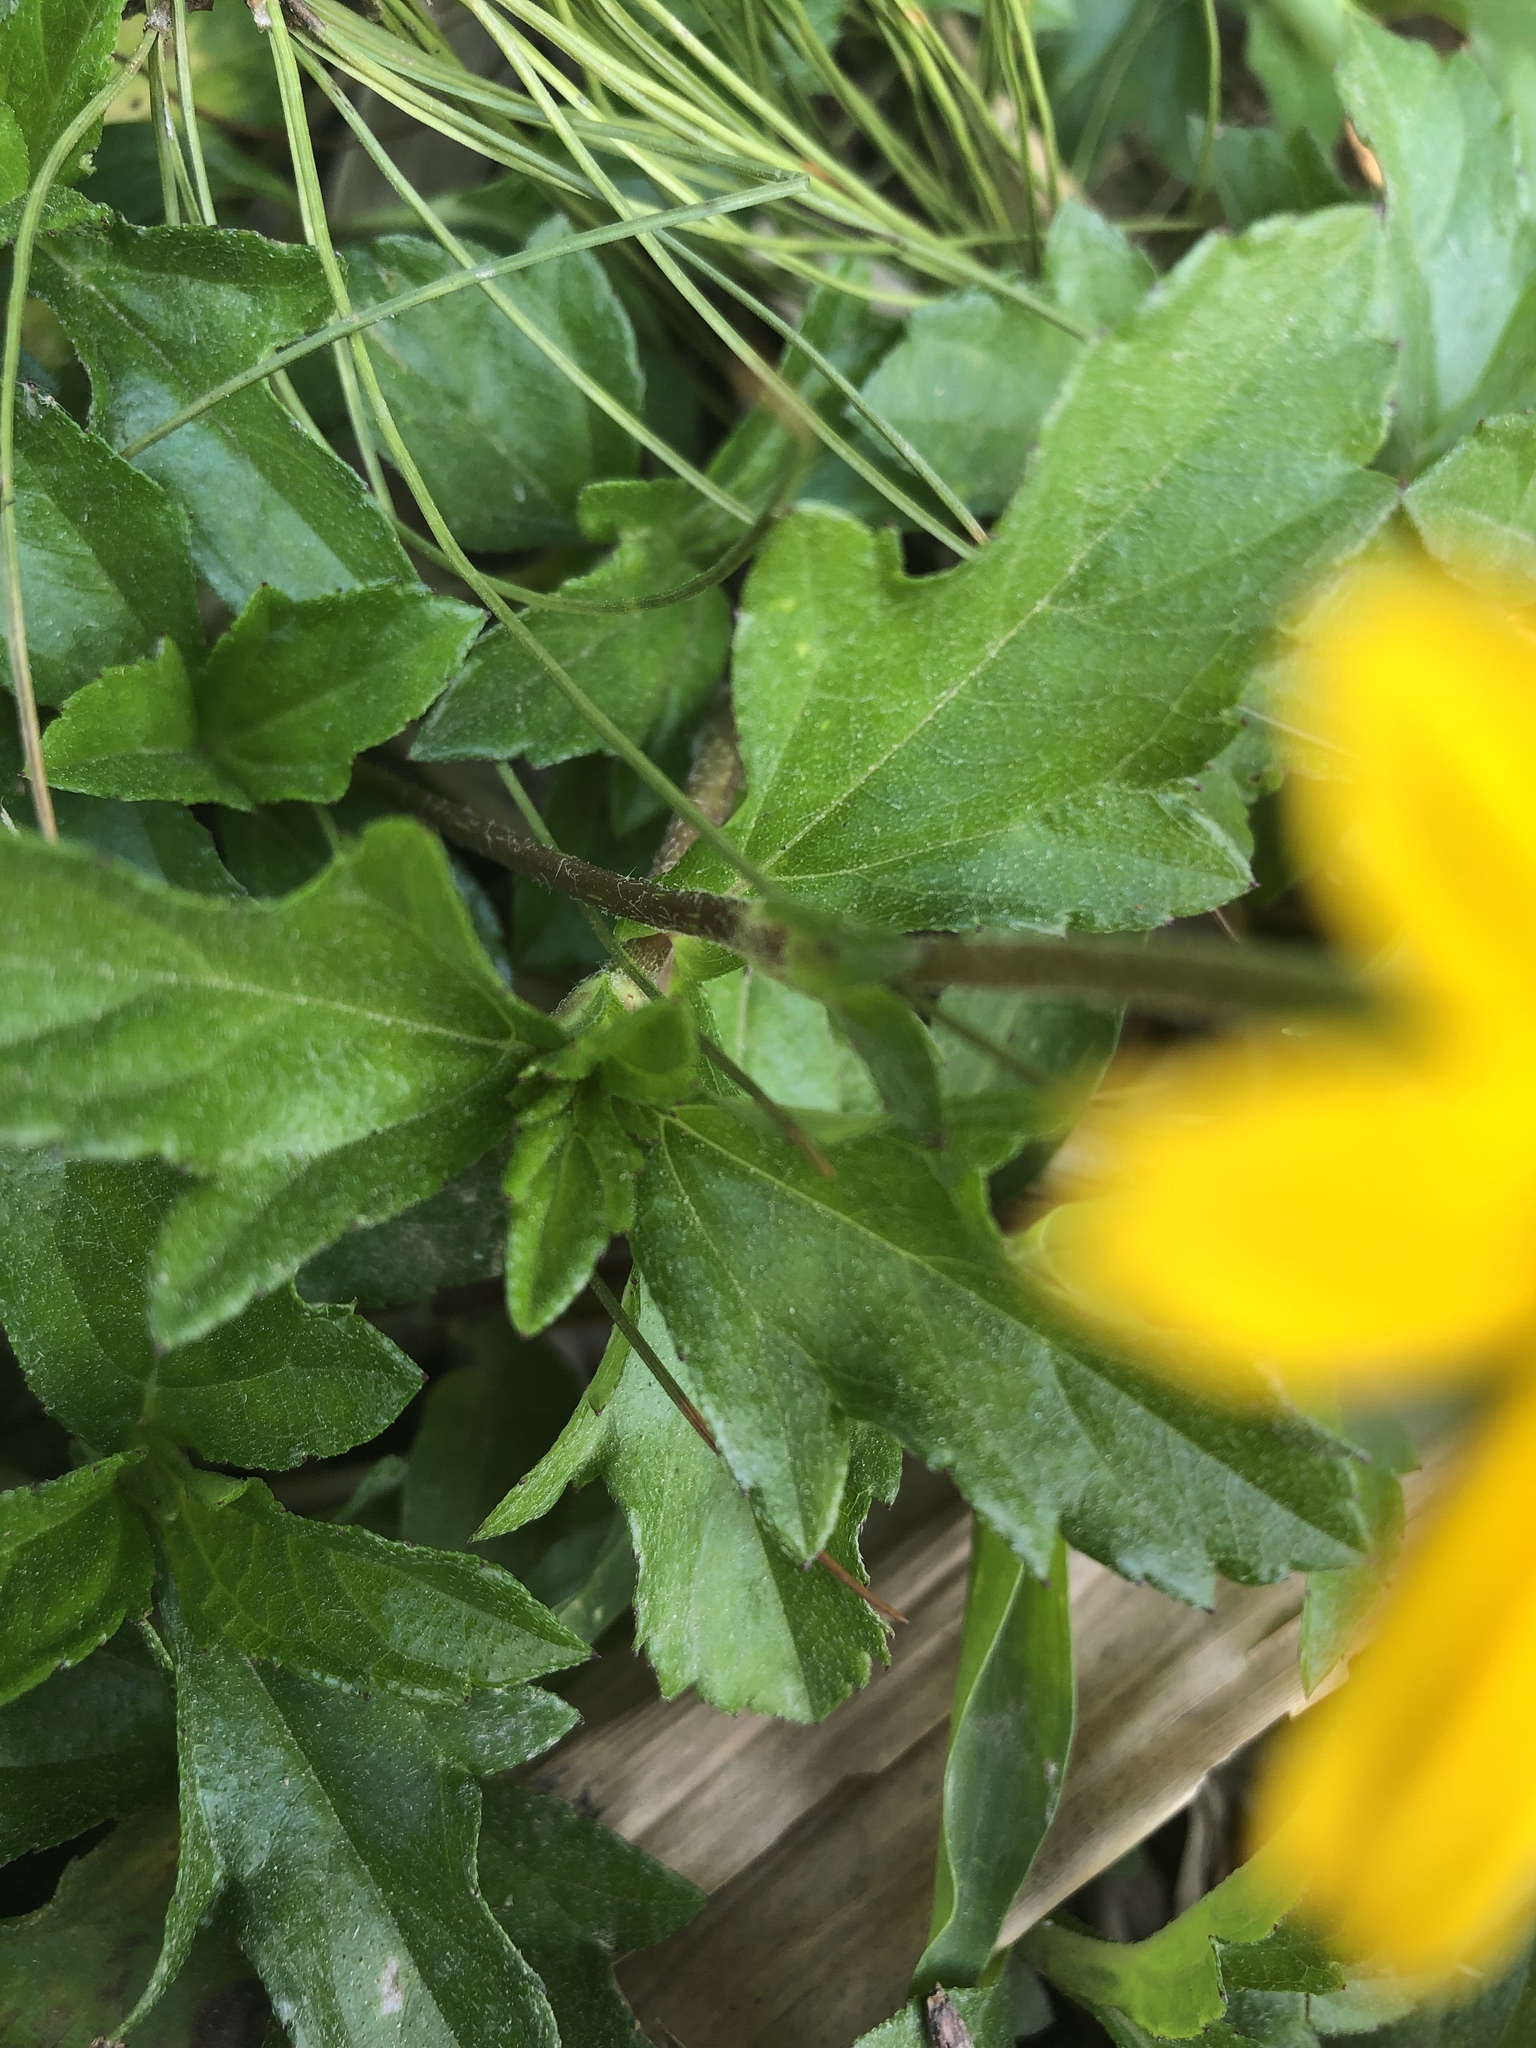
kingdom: Plantae
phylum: Tracheophyta
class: Magnoliopsida
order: Asterales
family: Asteraceae
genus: Sphagneticola
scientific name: Sphagneticola trilobata
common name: Bay biscayne creeping-oxeye
